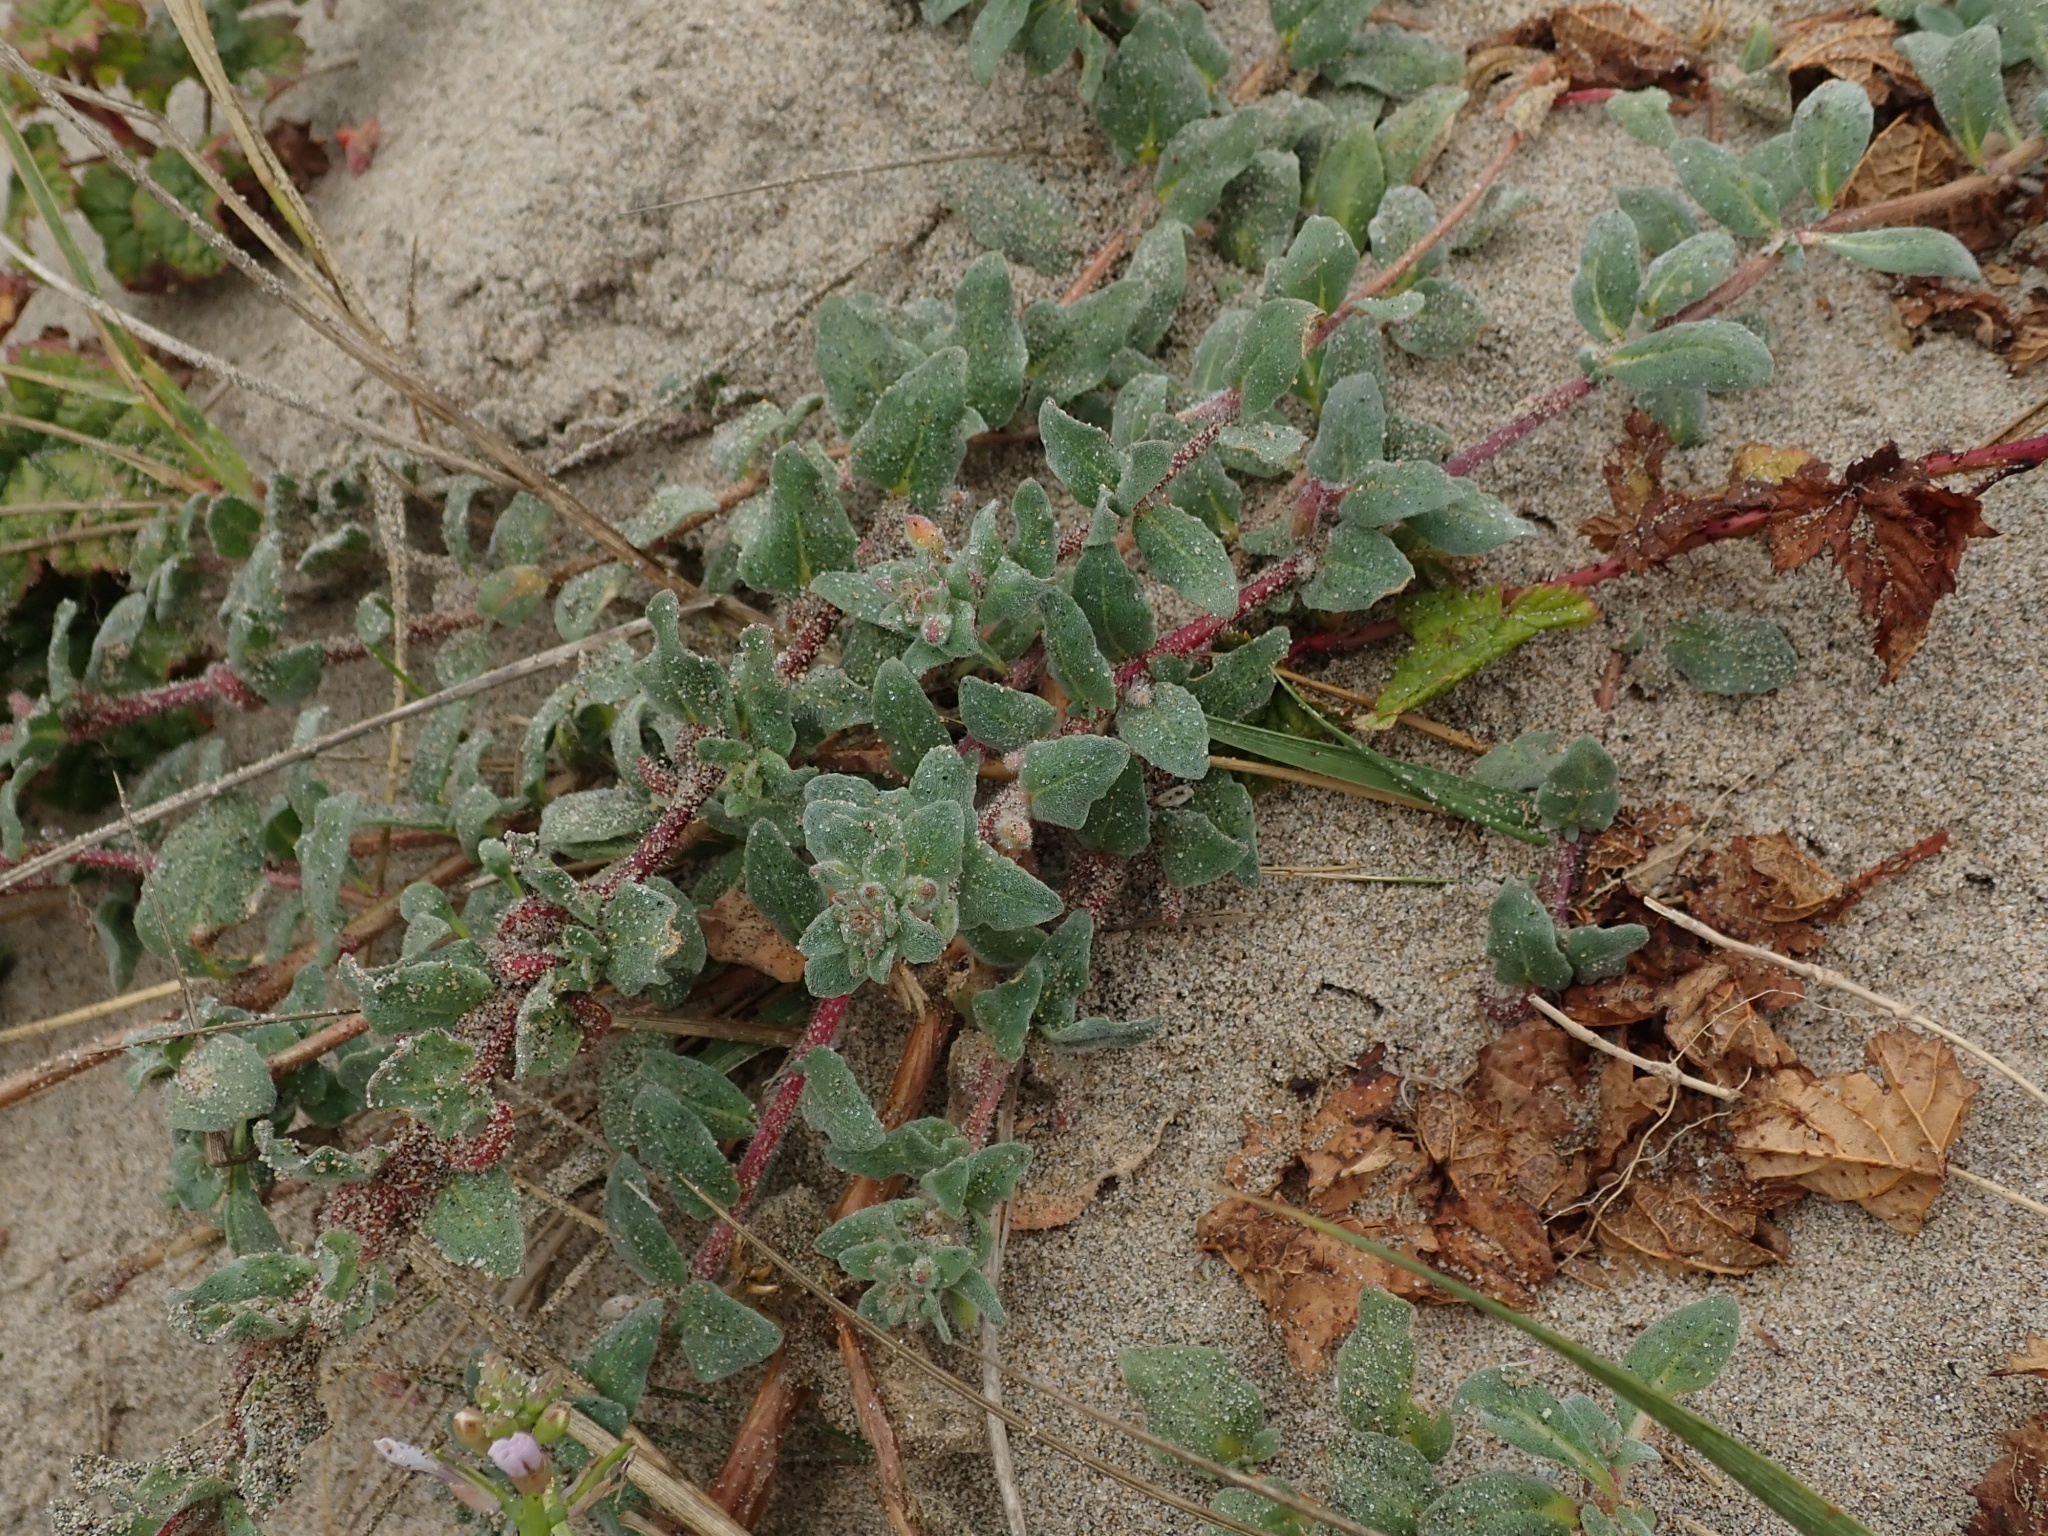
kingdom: Plantae
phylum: Tracheophyta
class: Magnoliopsida
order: Myrtales
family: Onagraceae
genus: Camissoniopsis
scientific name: Camissoniopsis cheiranthifolia
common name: Beach suncup
